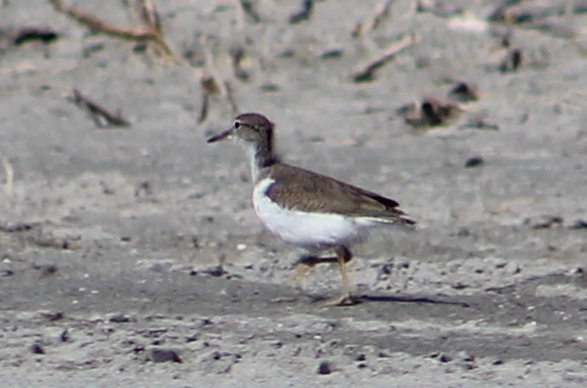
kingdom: Animalia
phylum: Chordata
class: Aves
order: Charadriiformes
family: Scolopacidae
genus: Actitis
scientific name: Actitis macularius
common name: Spotted sandpiper
